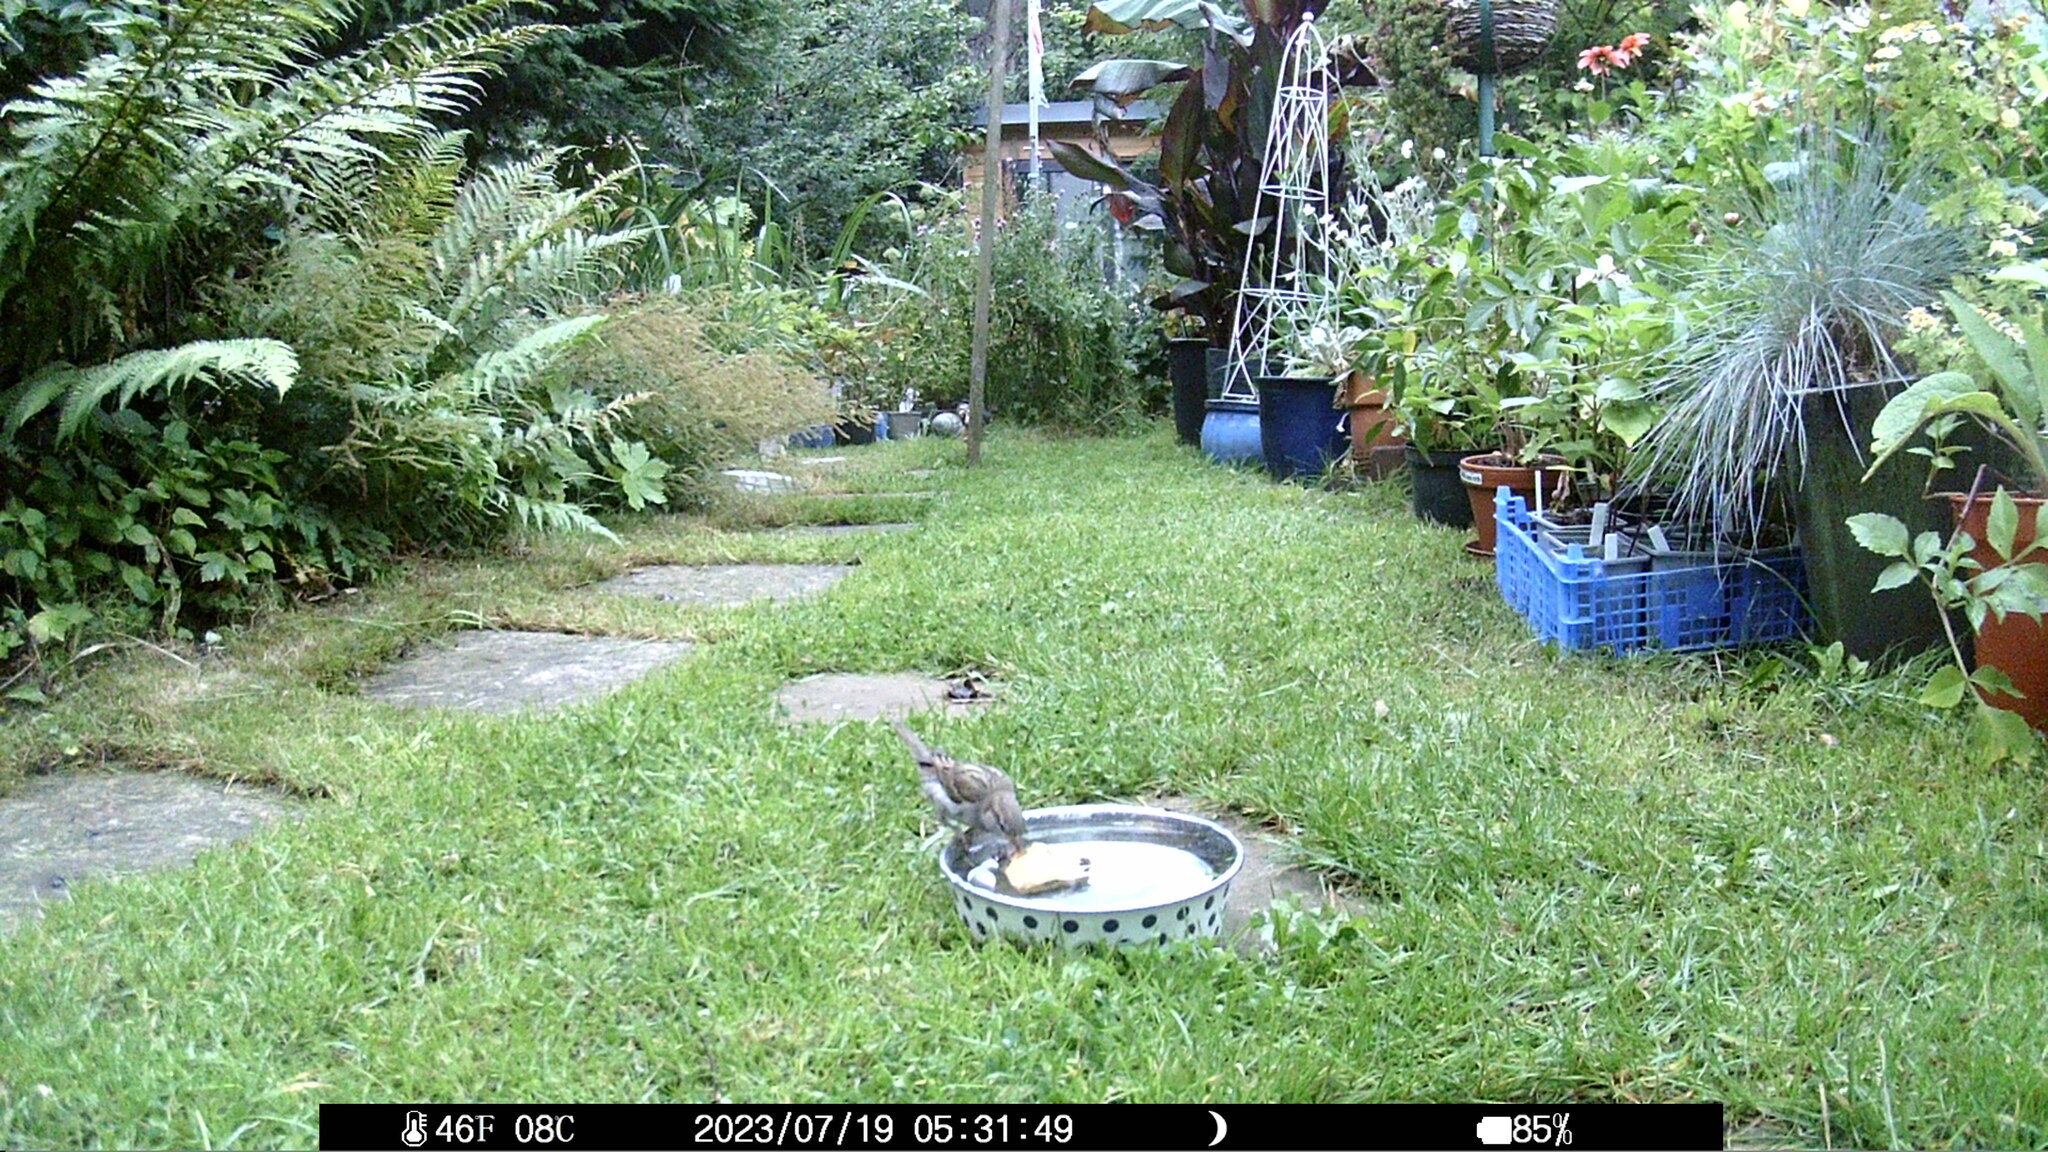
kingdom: Animalia
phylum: Chordata
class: Aves
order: Passeriformes
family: Passeridae
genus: Passer
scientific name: Passer domesticus
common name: House sparrow
